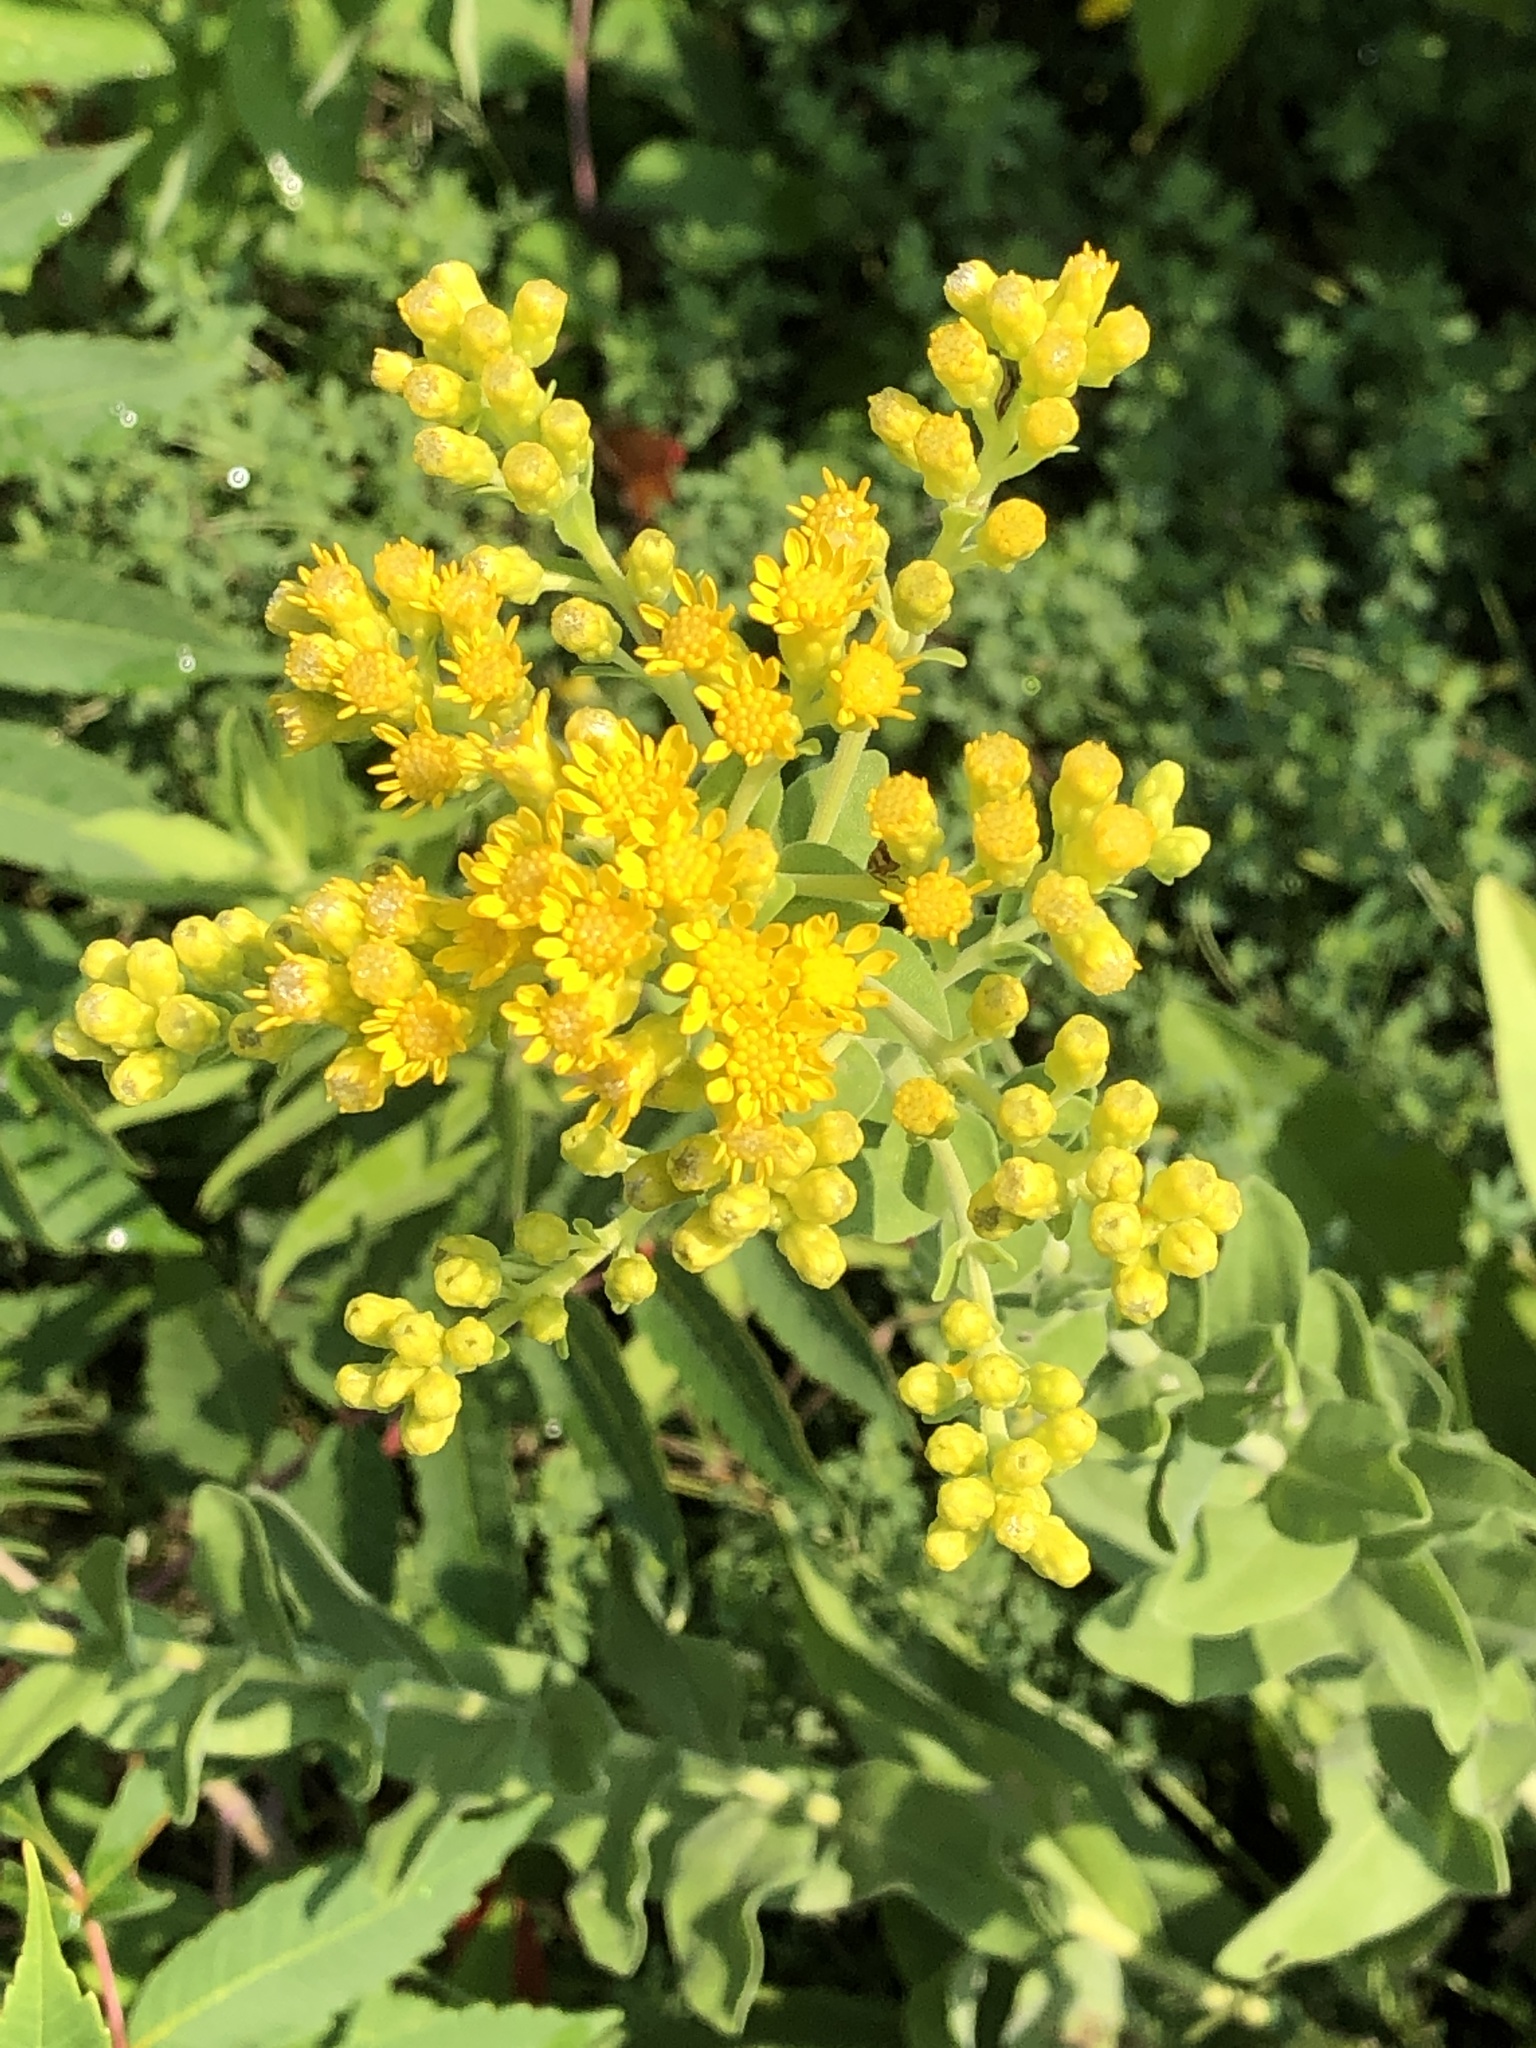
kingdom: Plantae
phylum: Tracheophyta
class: Magnoliopsida
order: Asterales
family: Asteraceae
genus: Solidago
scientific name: Solidago rigida
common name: Rigid goldenrod
